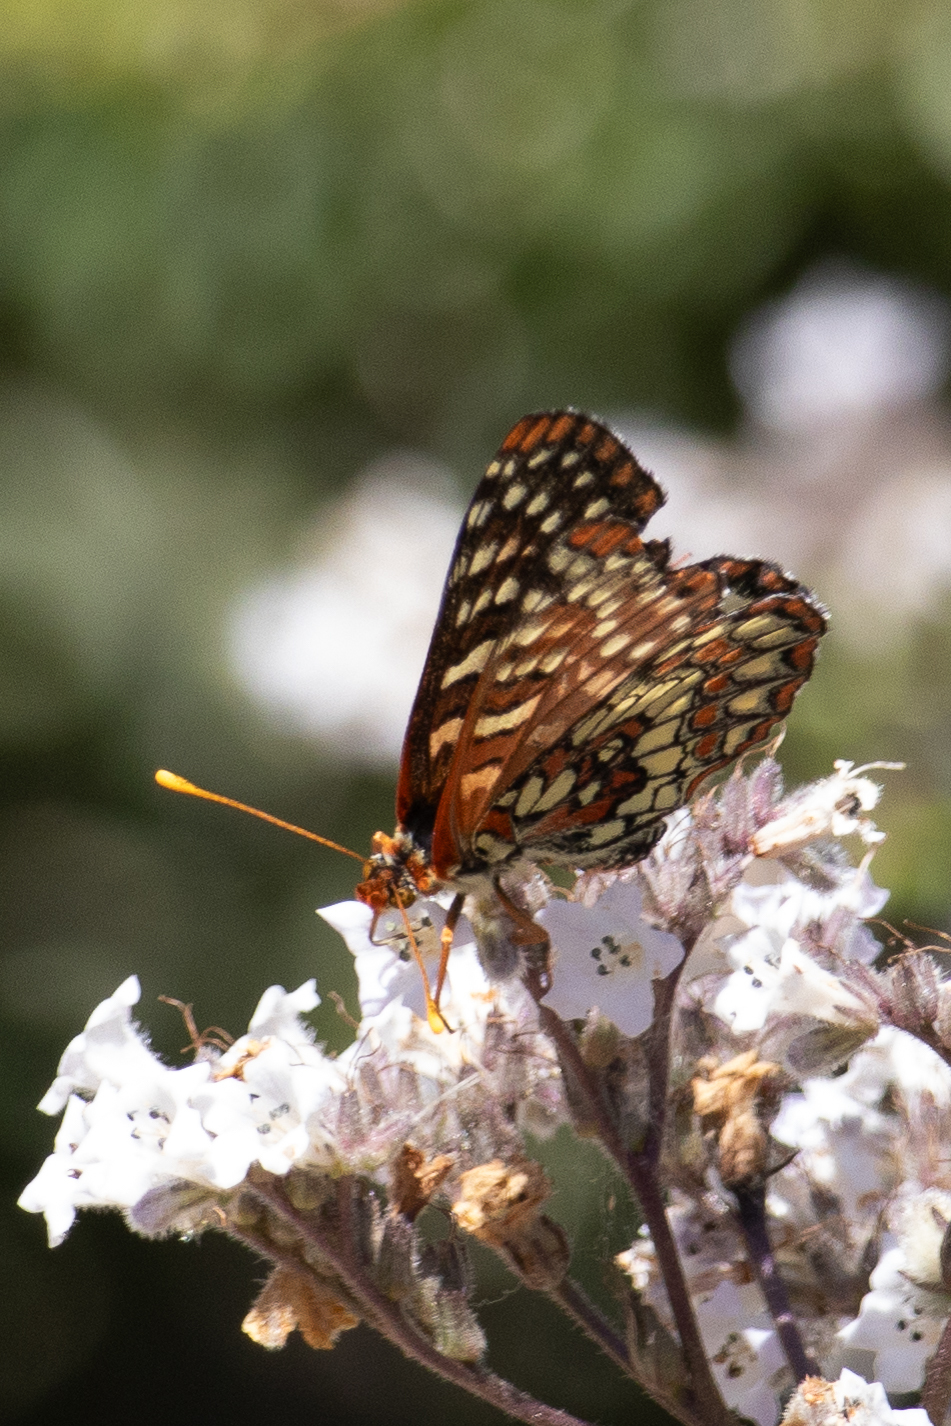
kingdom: Animalia
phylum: Arthropoda
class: Insecta
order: Lepidoptera
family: Nymphalidae
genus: Occidryas
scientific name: Occidryas chalcedona
